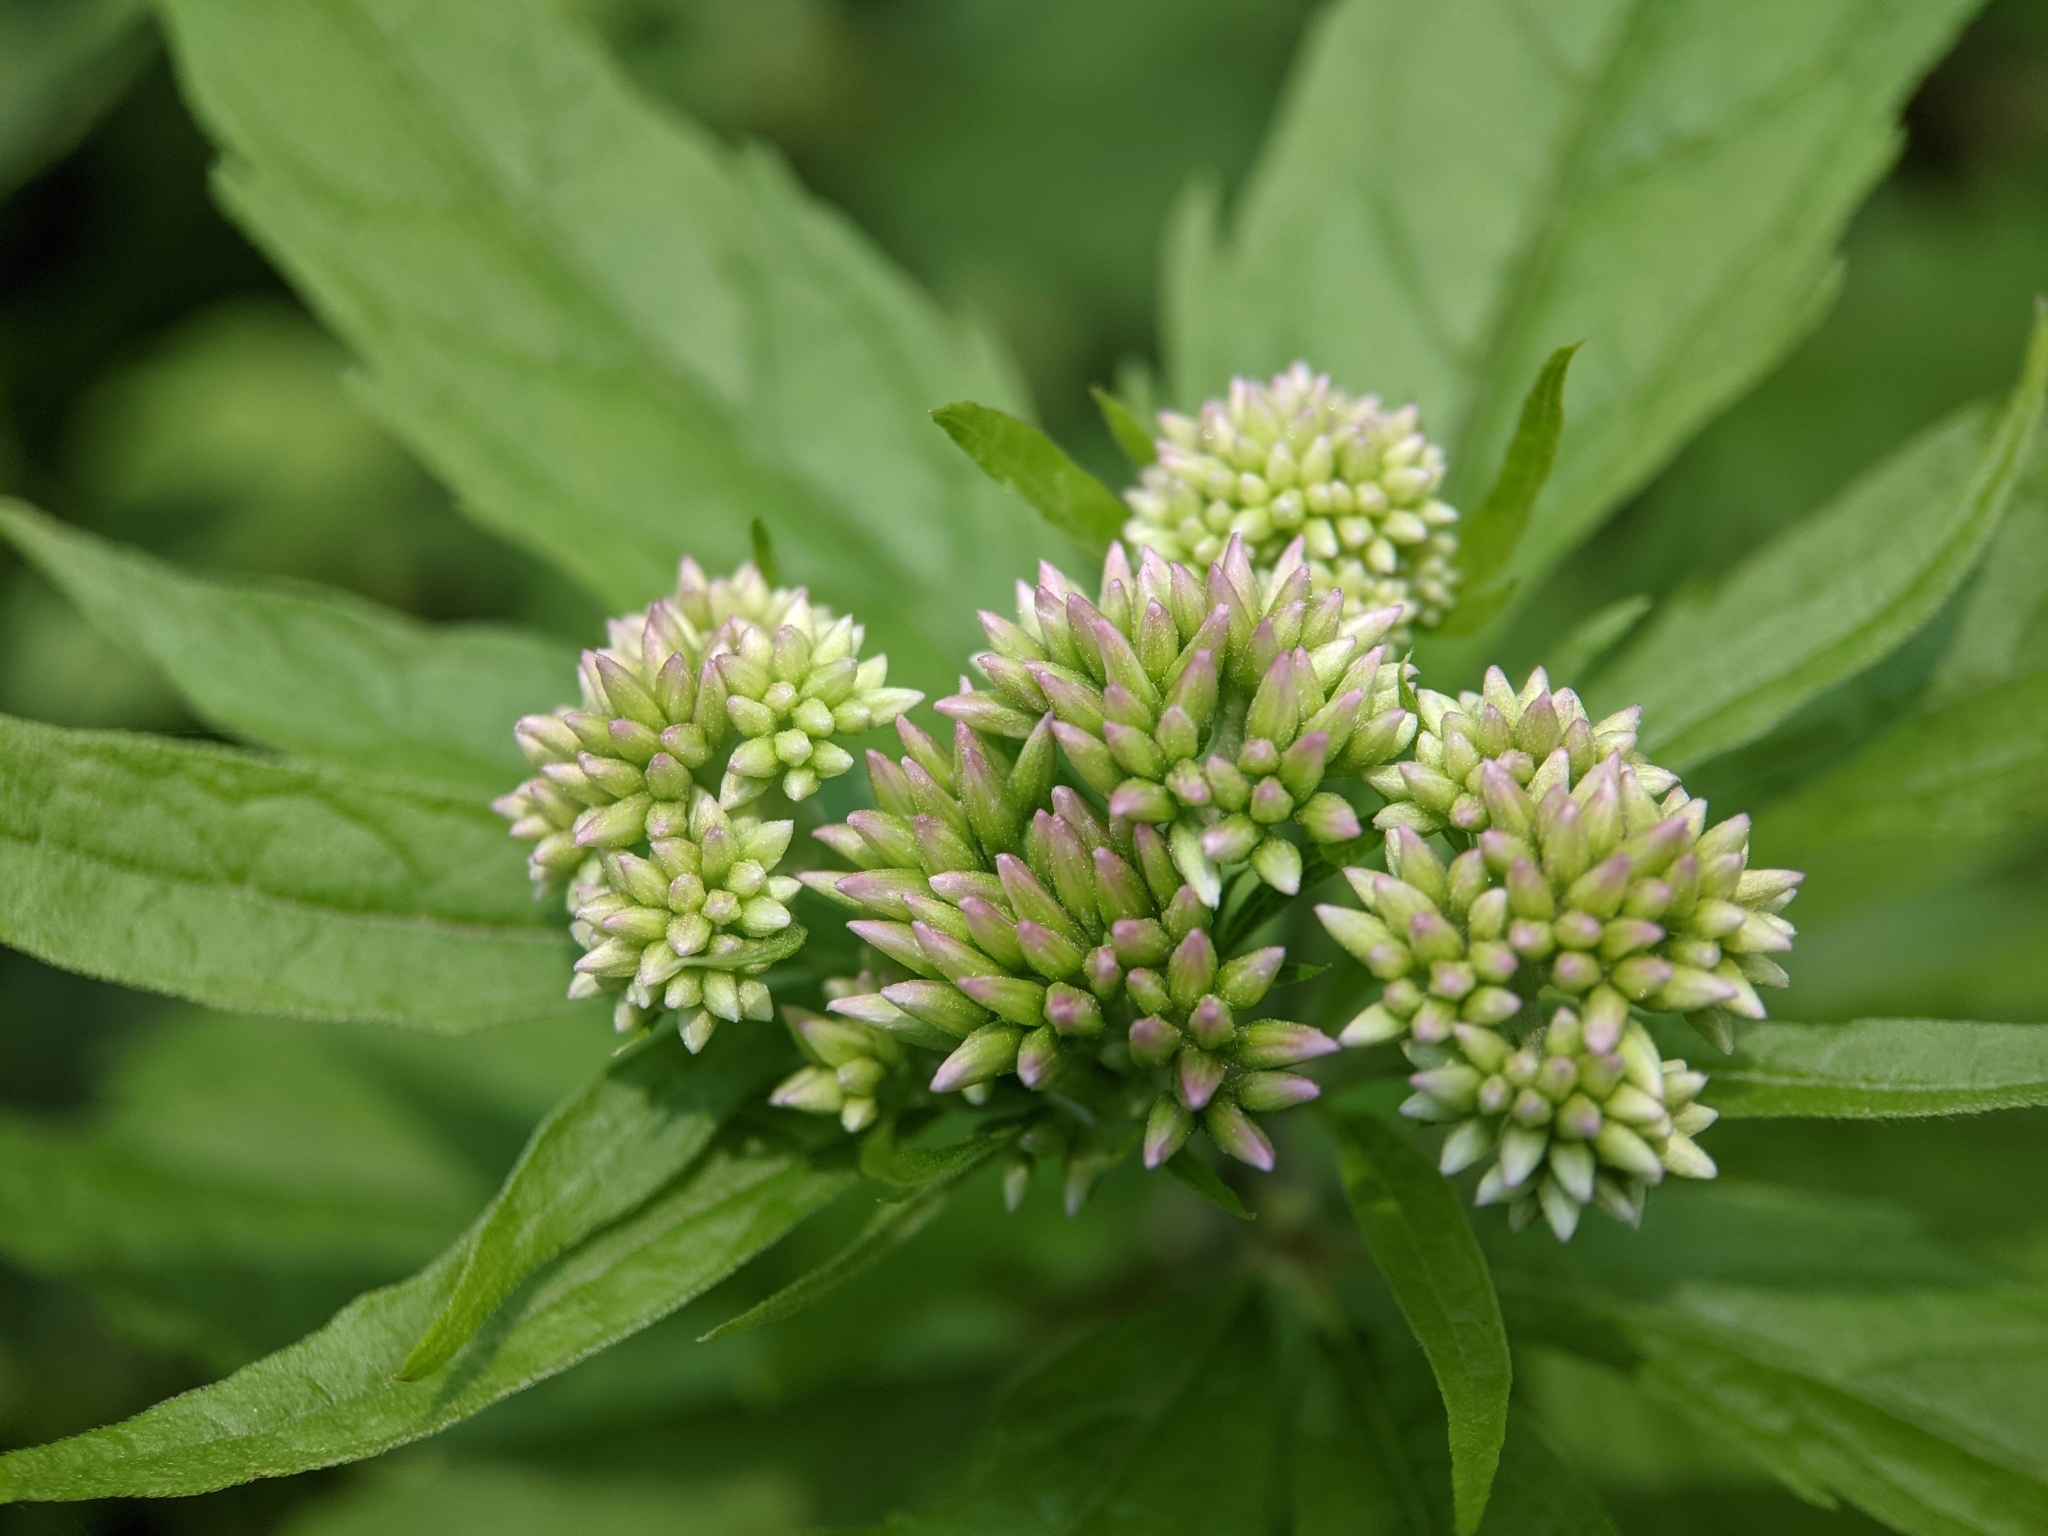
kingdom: Plantae
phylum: Tracheophyta
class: Magnoliopsida
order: Asterales
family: Asteraceae
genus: Eupatorium
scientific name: Eupatorium cannabinum
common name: Hemp-agrimony
